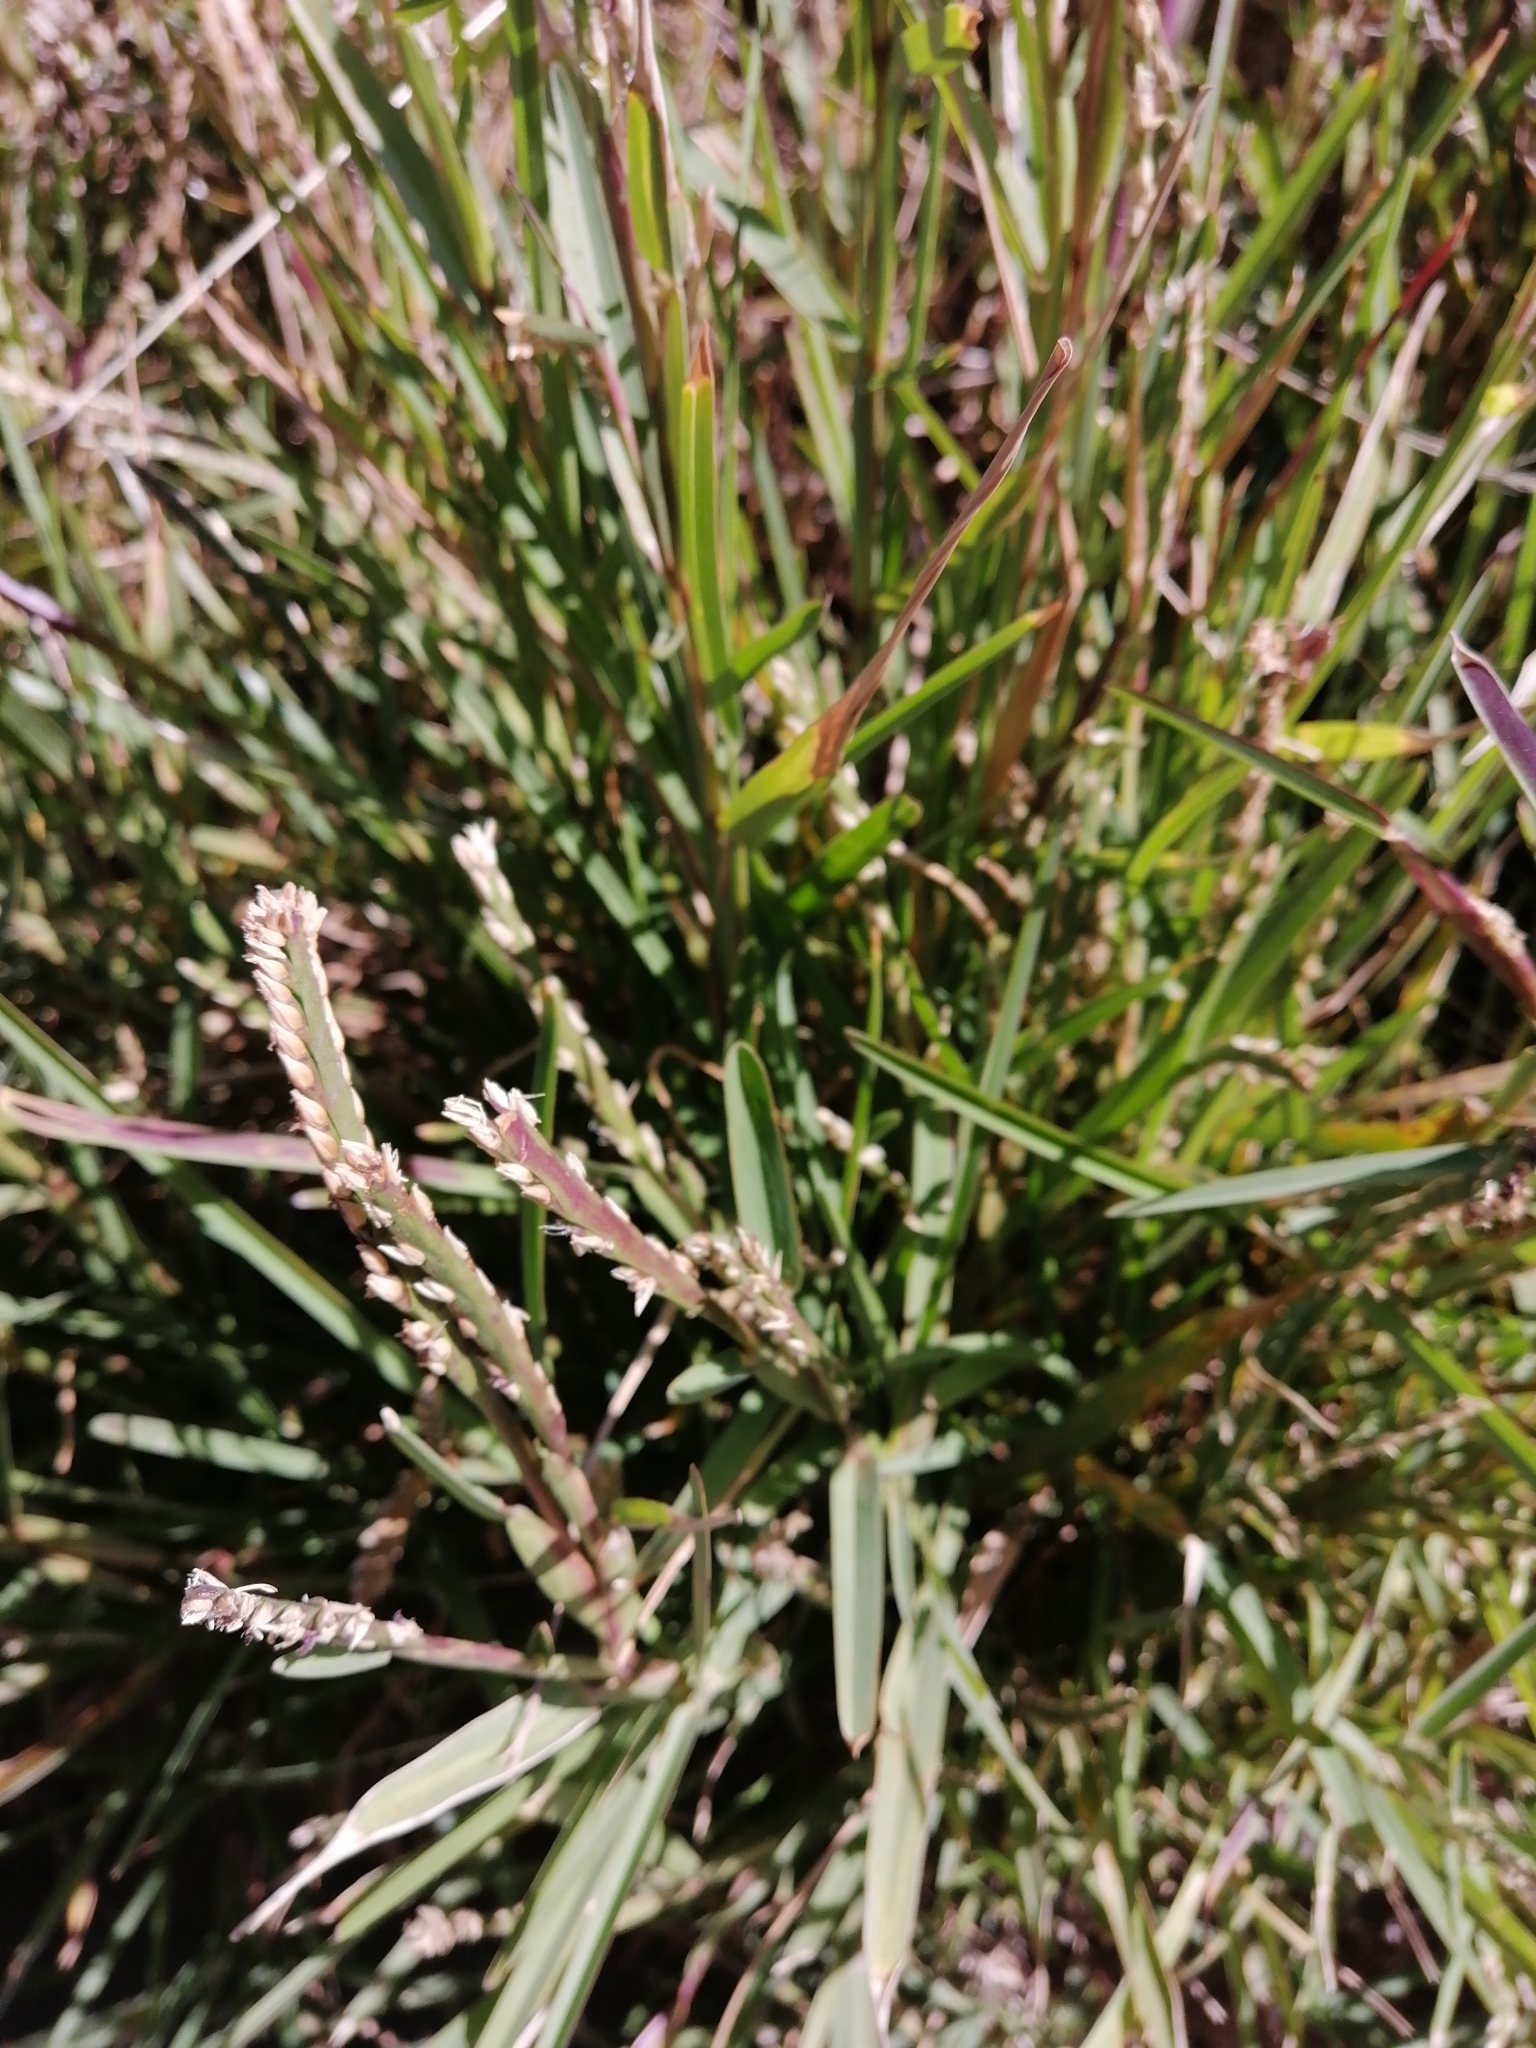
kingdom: Plantae
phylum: Tracheophyta
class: Liliopsida
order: Poales
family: Poaceae
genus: Stenotaphrum
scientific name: Stenotaphrum secundatum
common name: St. augustine grass
